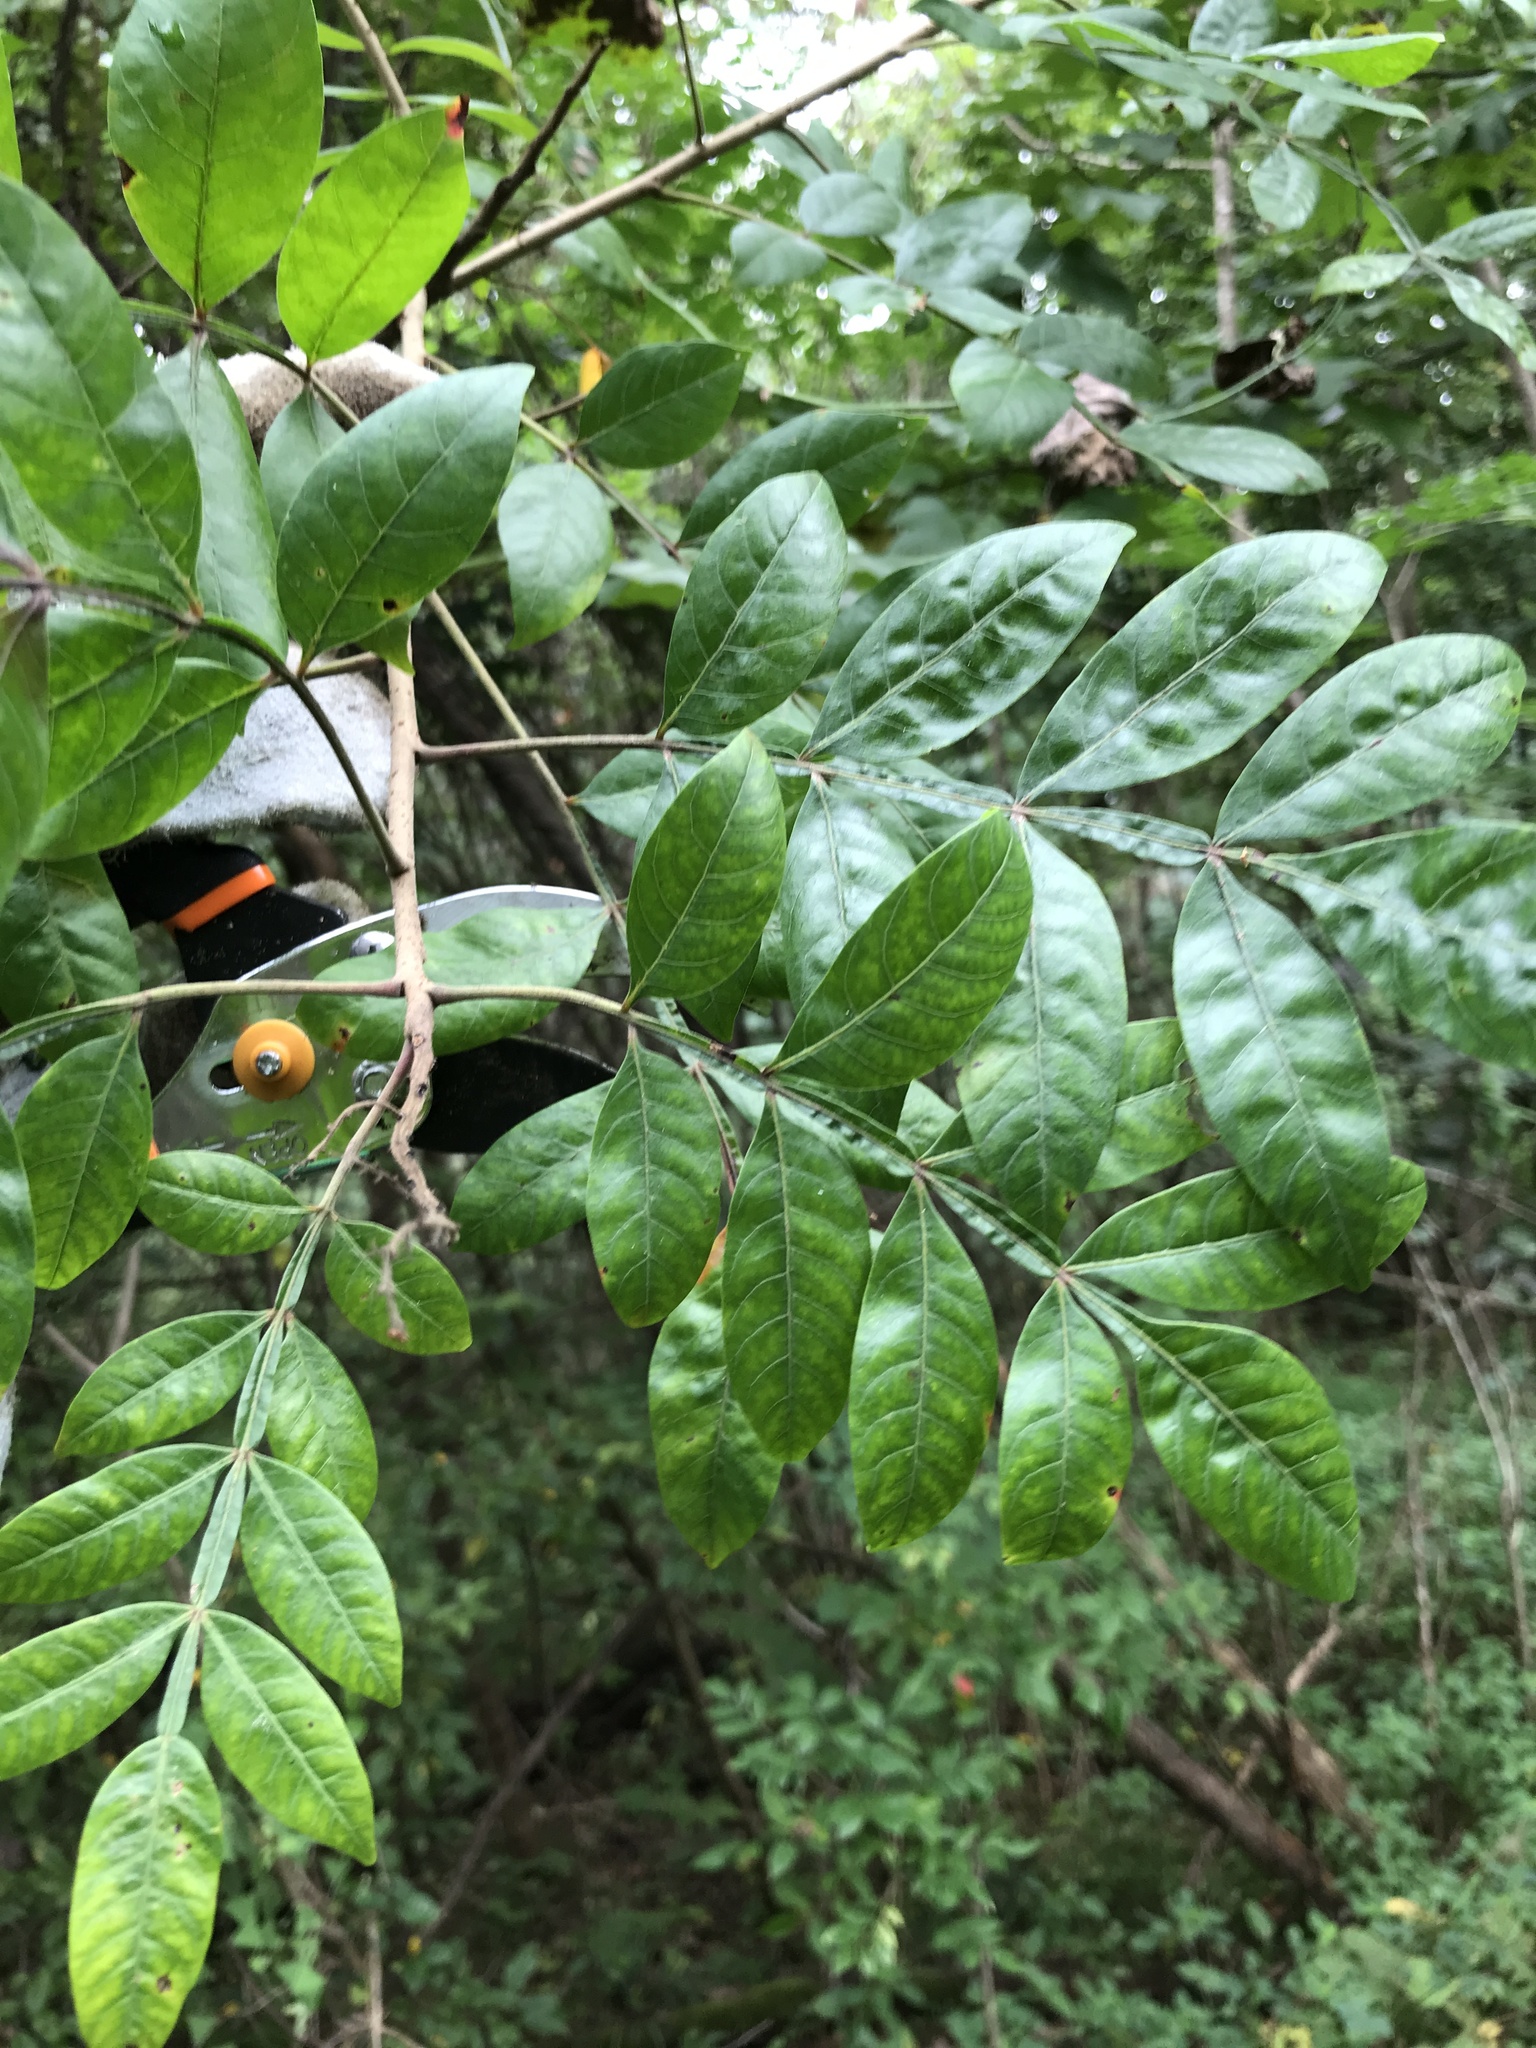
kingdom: Plantae
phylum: Tracheophyta
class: Magnoliopsida
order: Sapindales
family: Anacardiaceae
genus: Rhus
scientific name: Rhus copallina
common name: Shining sumac
